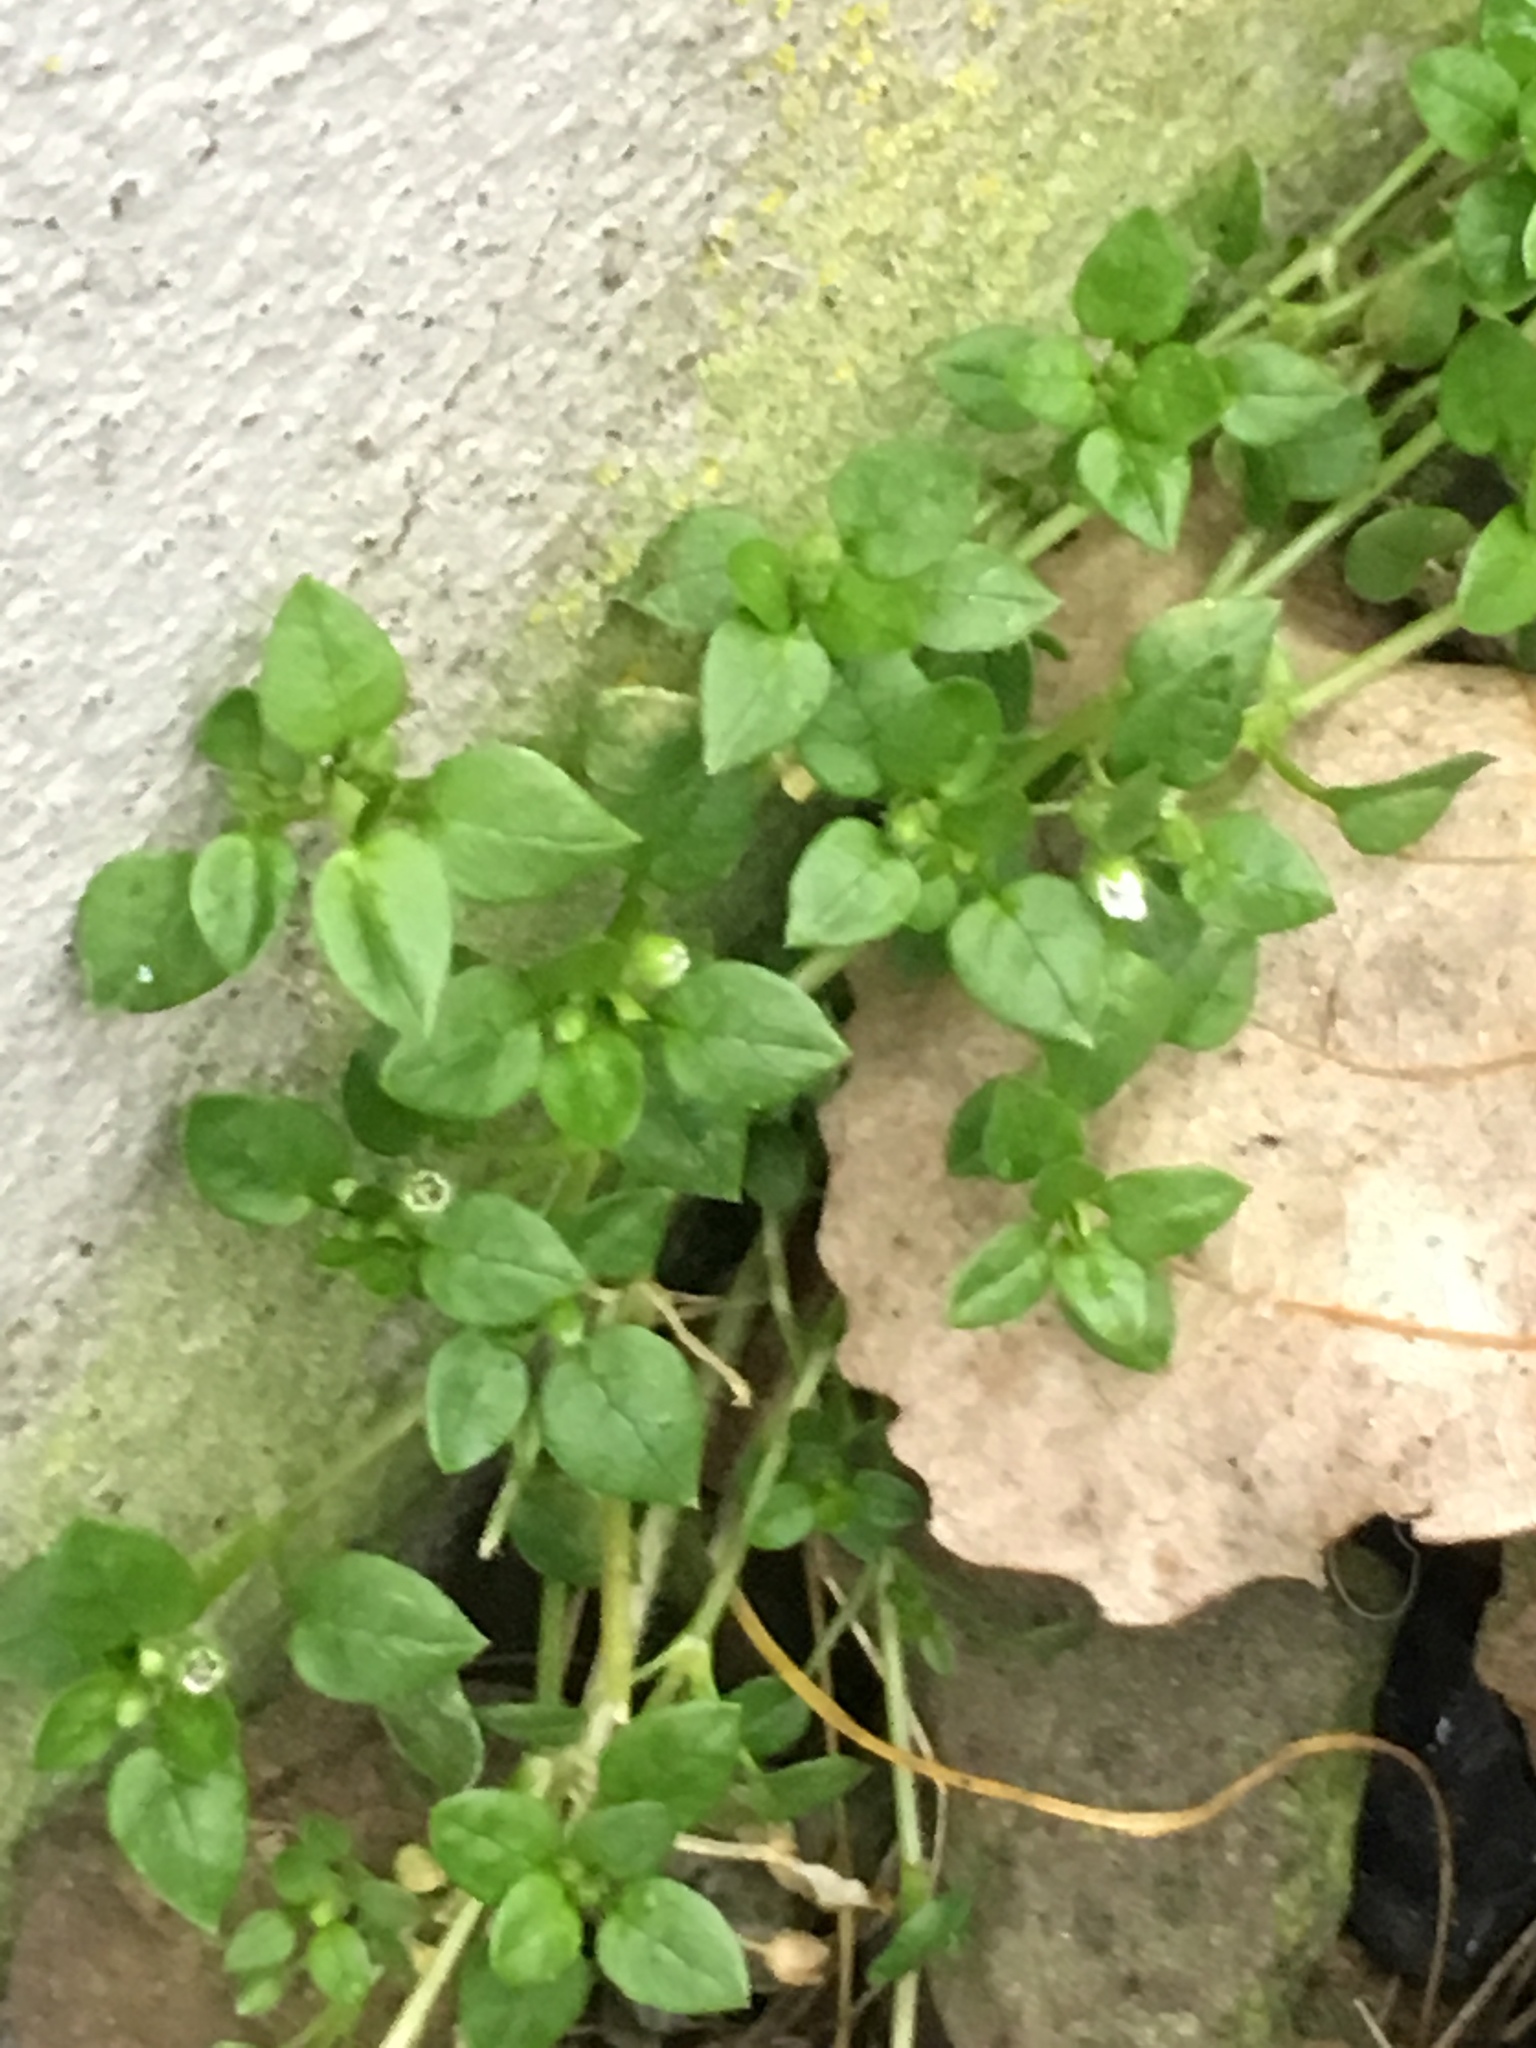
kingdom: Plantae
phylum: Tracheophyta
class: Magnoliopsida
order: Caryophyllales
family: Caryophyllaceae
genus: Stellaria
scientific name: Stellaria media
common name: Common chickweed
